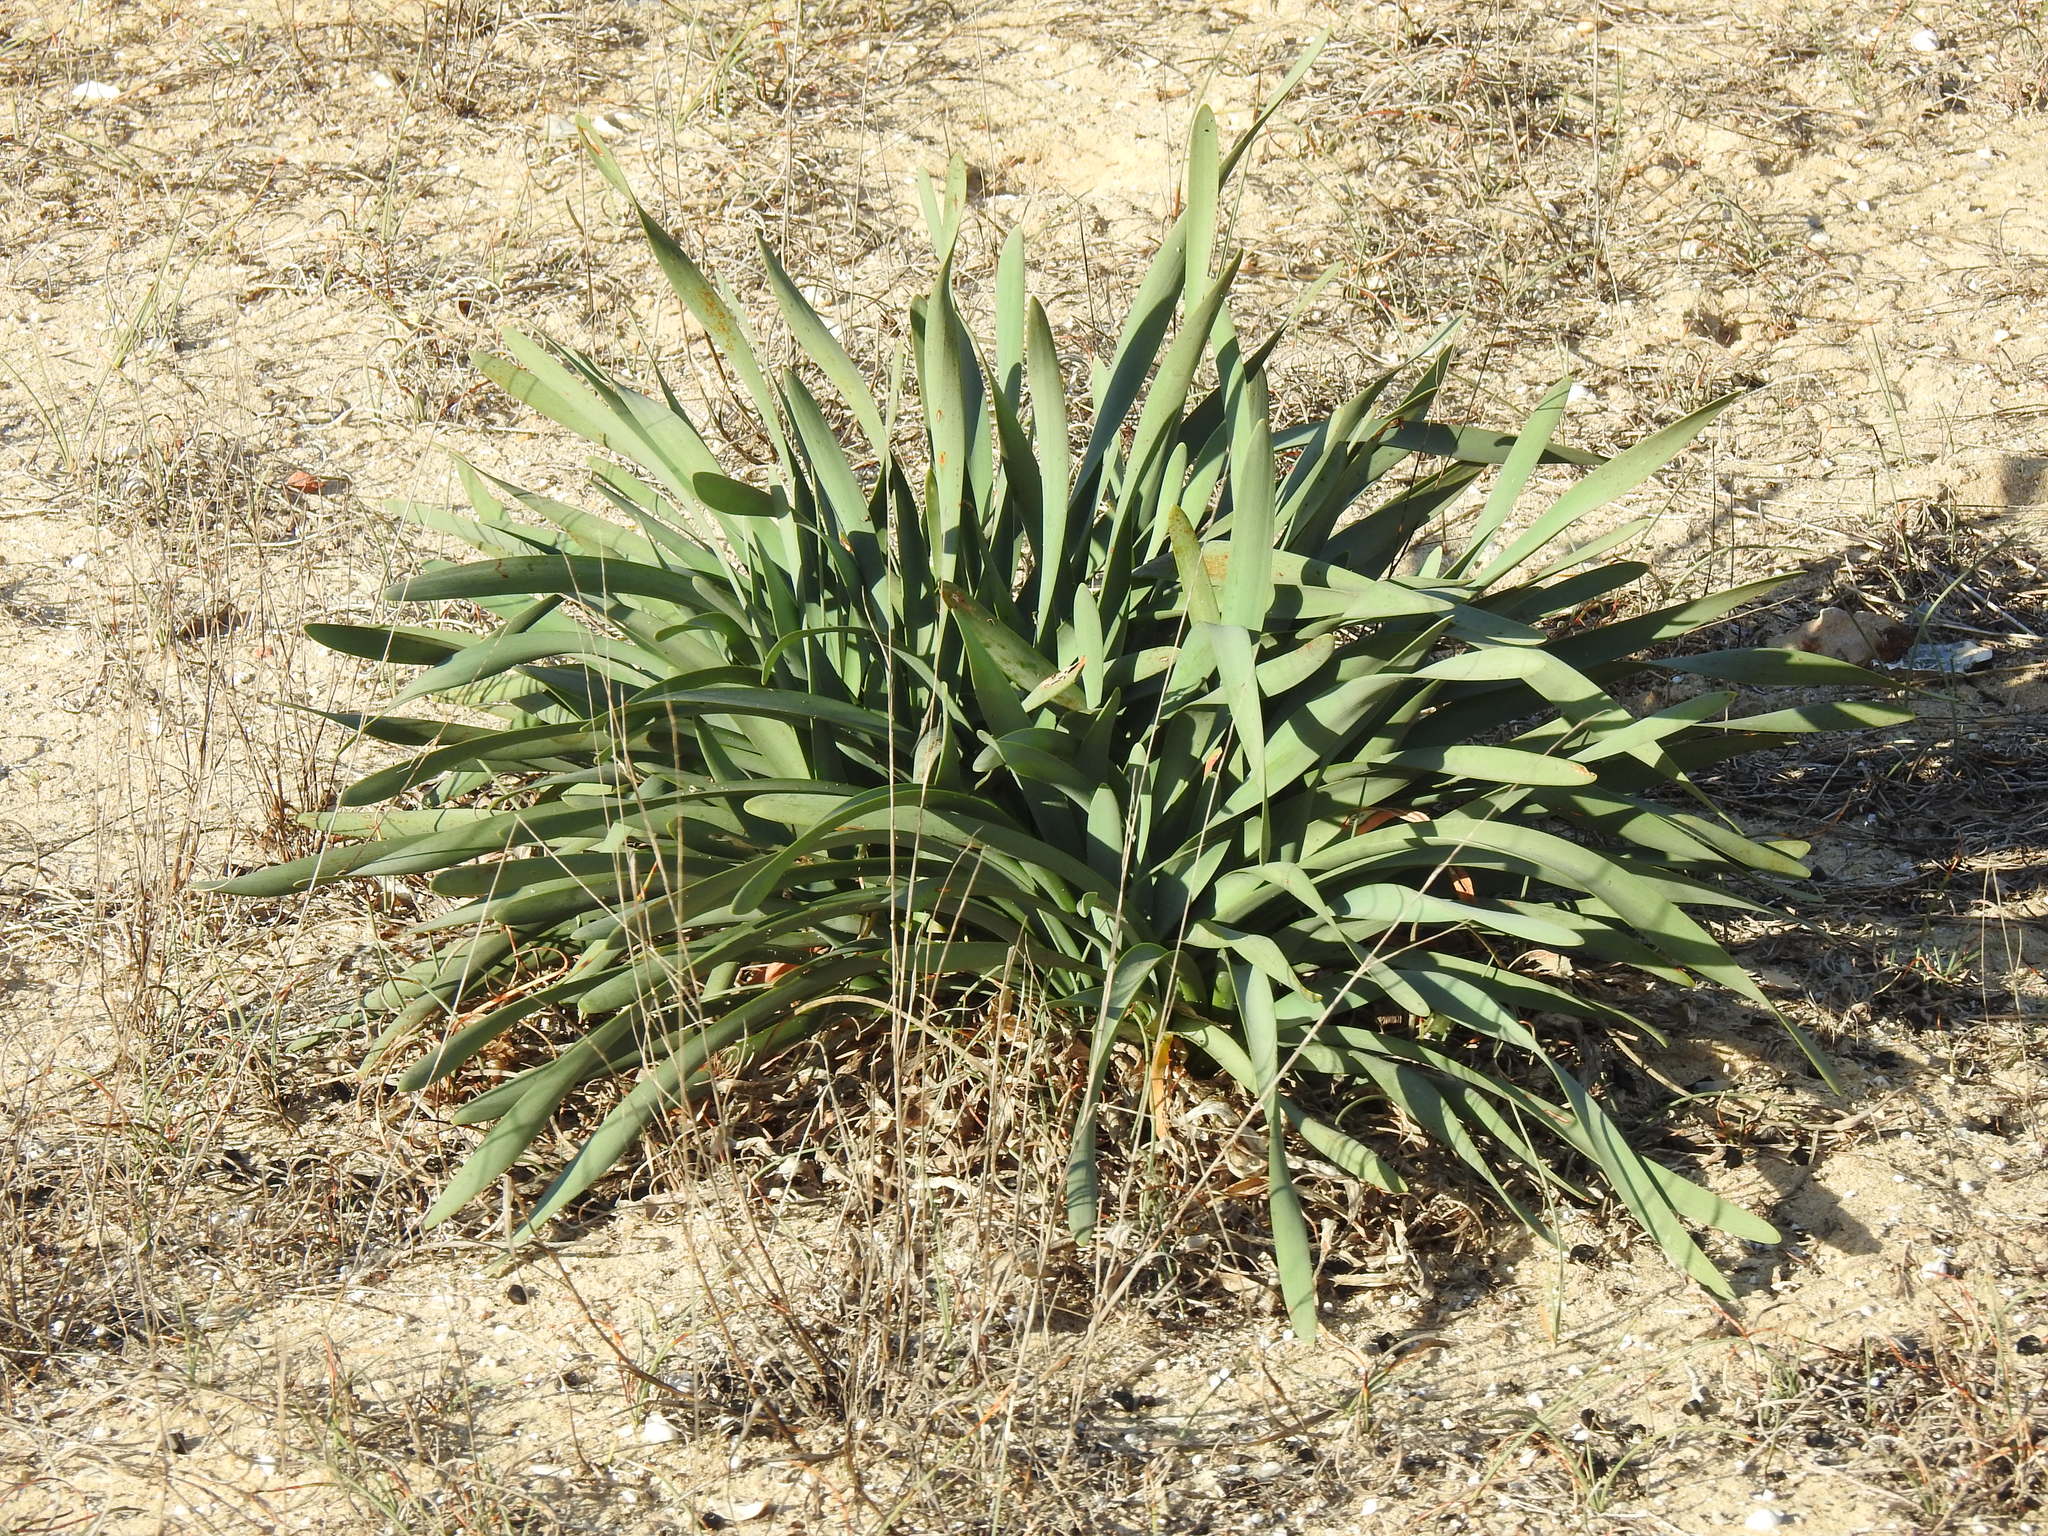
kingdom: Plantae
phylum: Tracheophyta
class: Liliopsida
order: Asparagales
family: Amaryllidaceae
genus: Pancratium
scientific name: Pancratium maritimum
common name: Sea-daffodil
